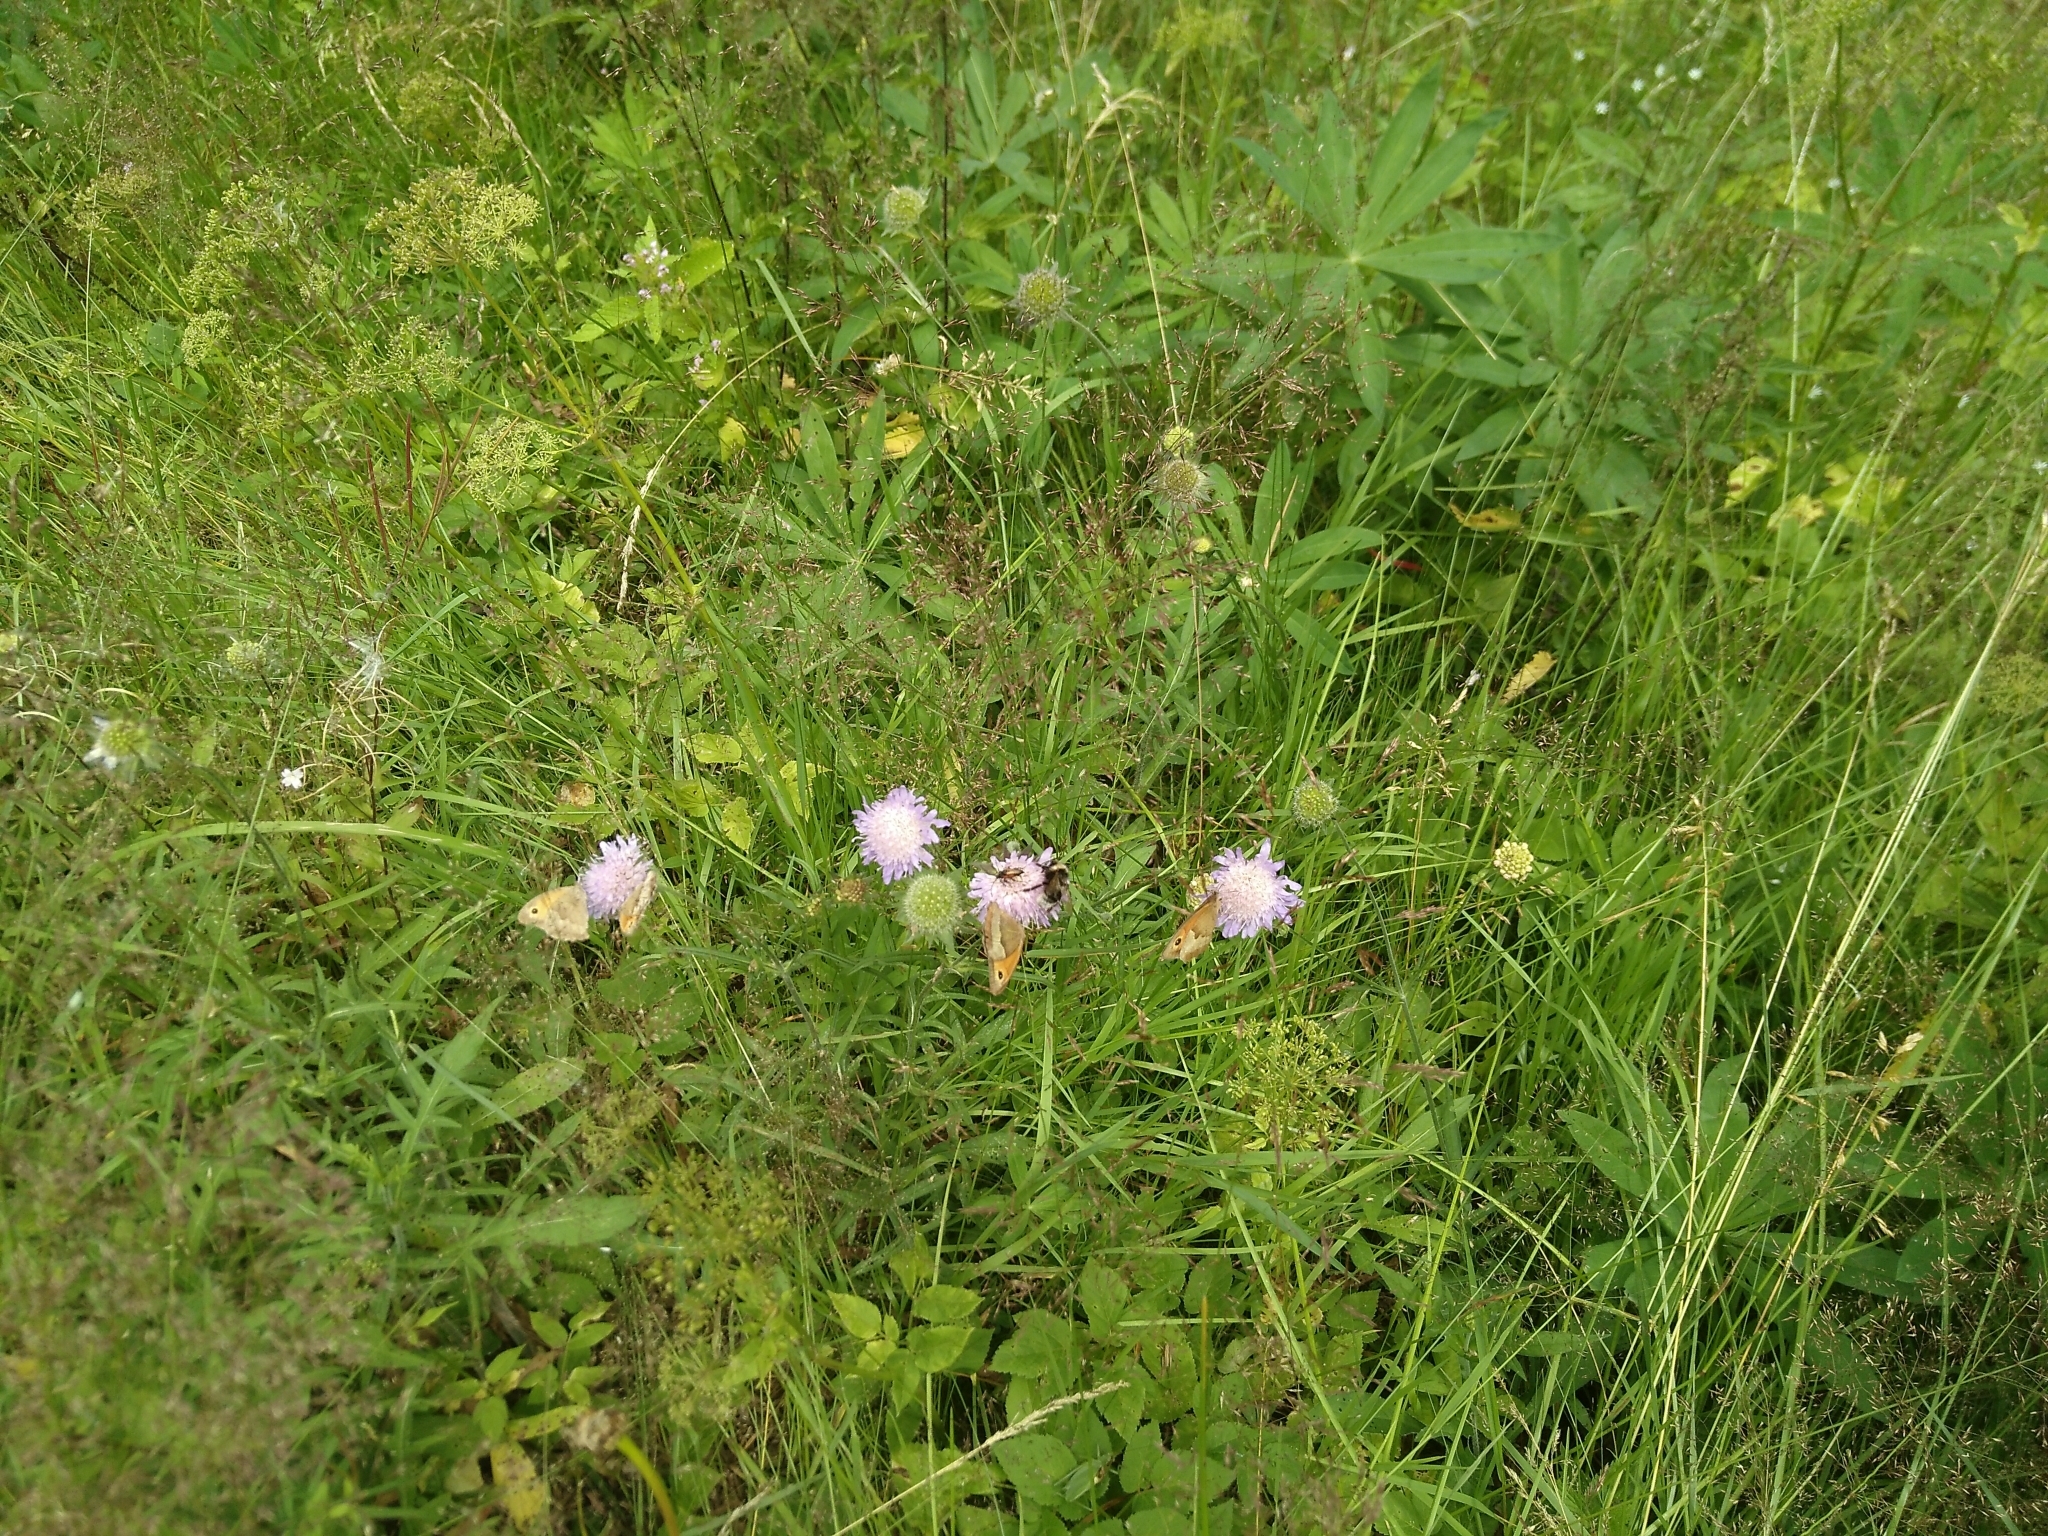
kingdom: Animalia
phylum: Arthropoda
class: Insecta
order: Lepidoptera
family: Nymphalidae
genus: Maniola
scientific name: Maniola jurtina
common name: Meadow brown
